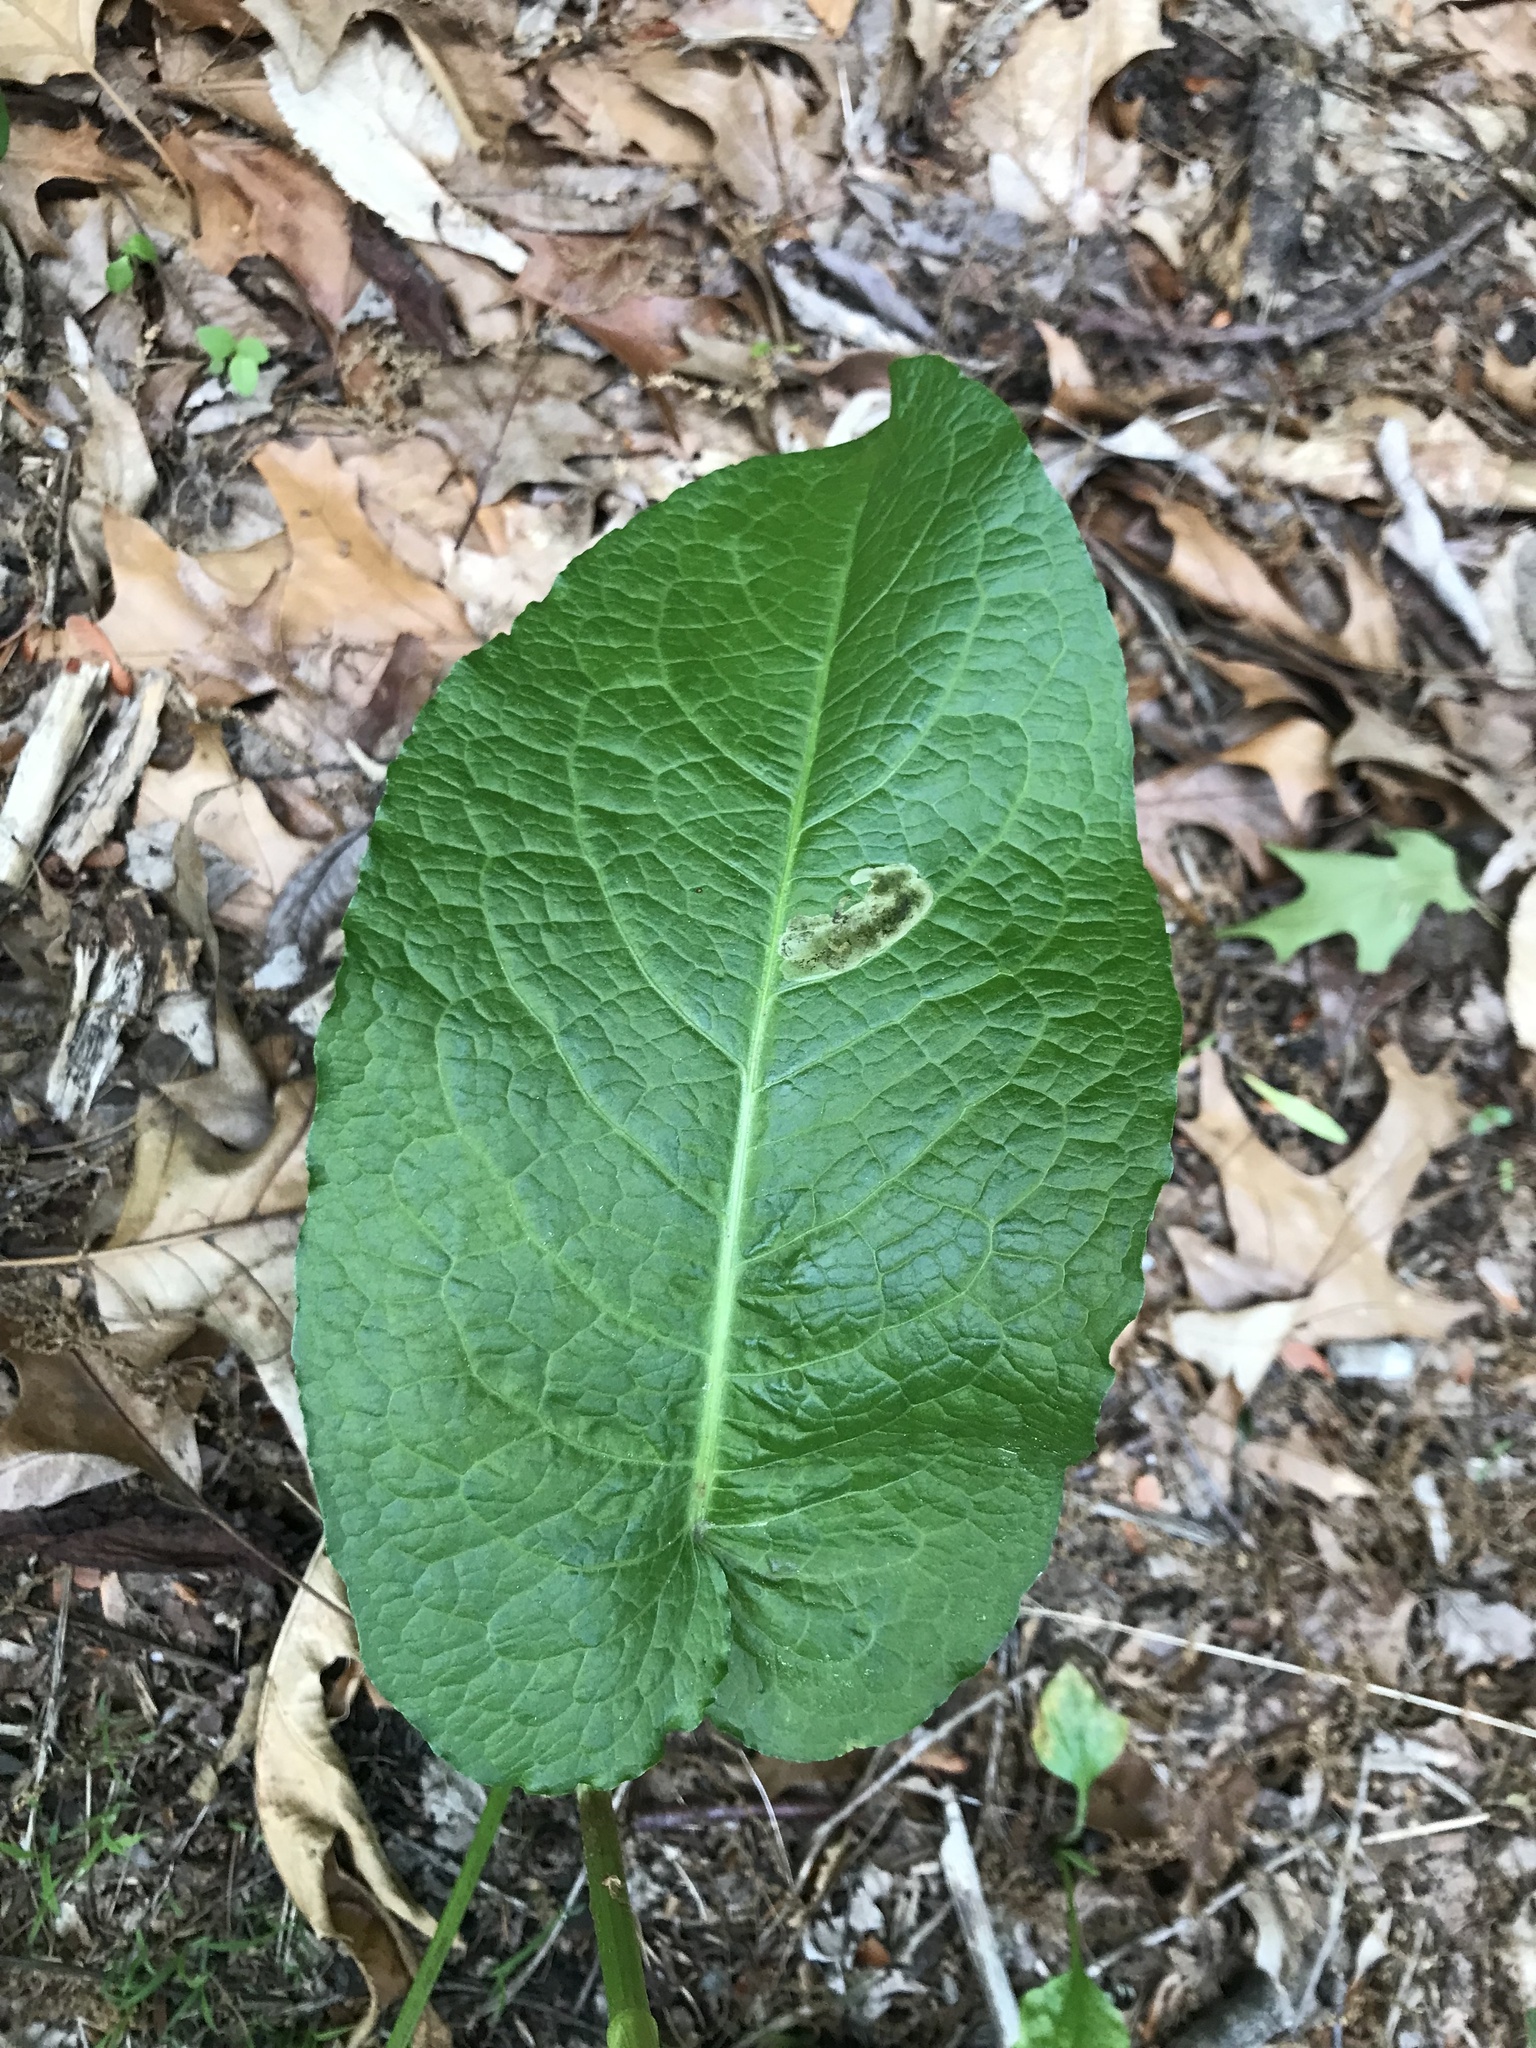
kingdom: Animalia
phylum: Arthropoda
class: Insecta
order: Diptera
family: Anthomyiidae
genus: Pegomya
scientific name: Pegomya bicolor
